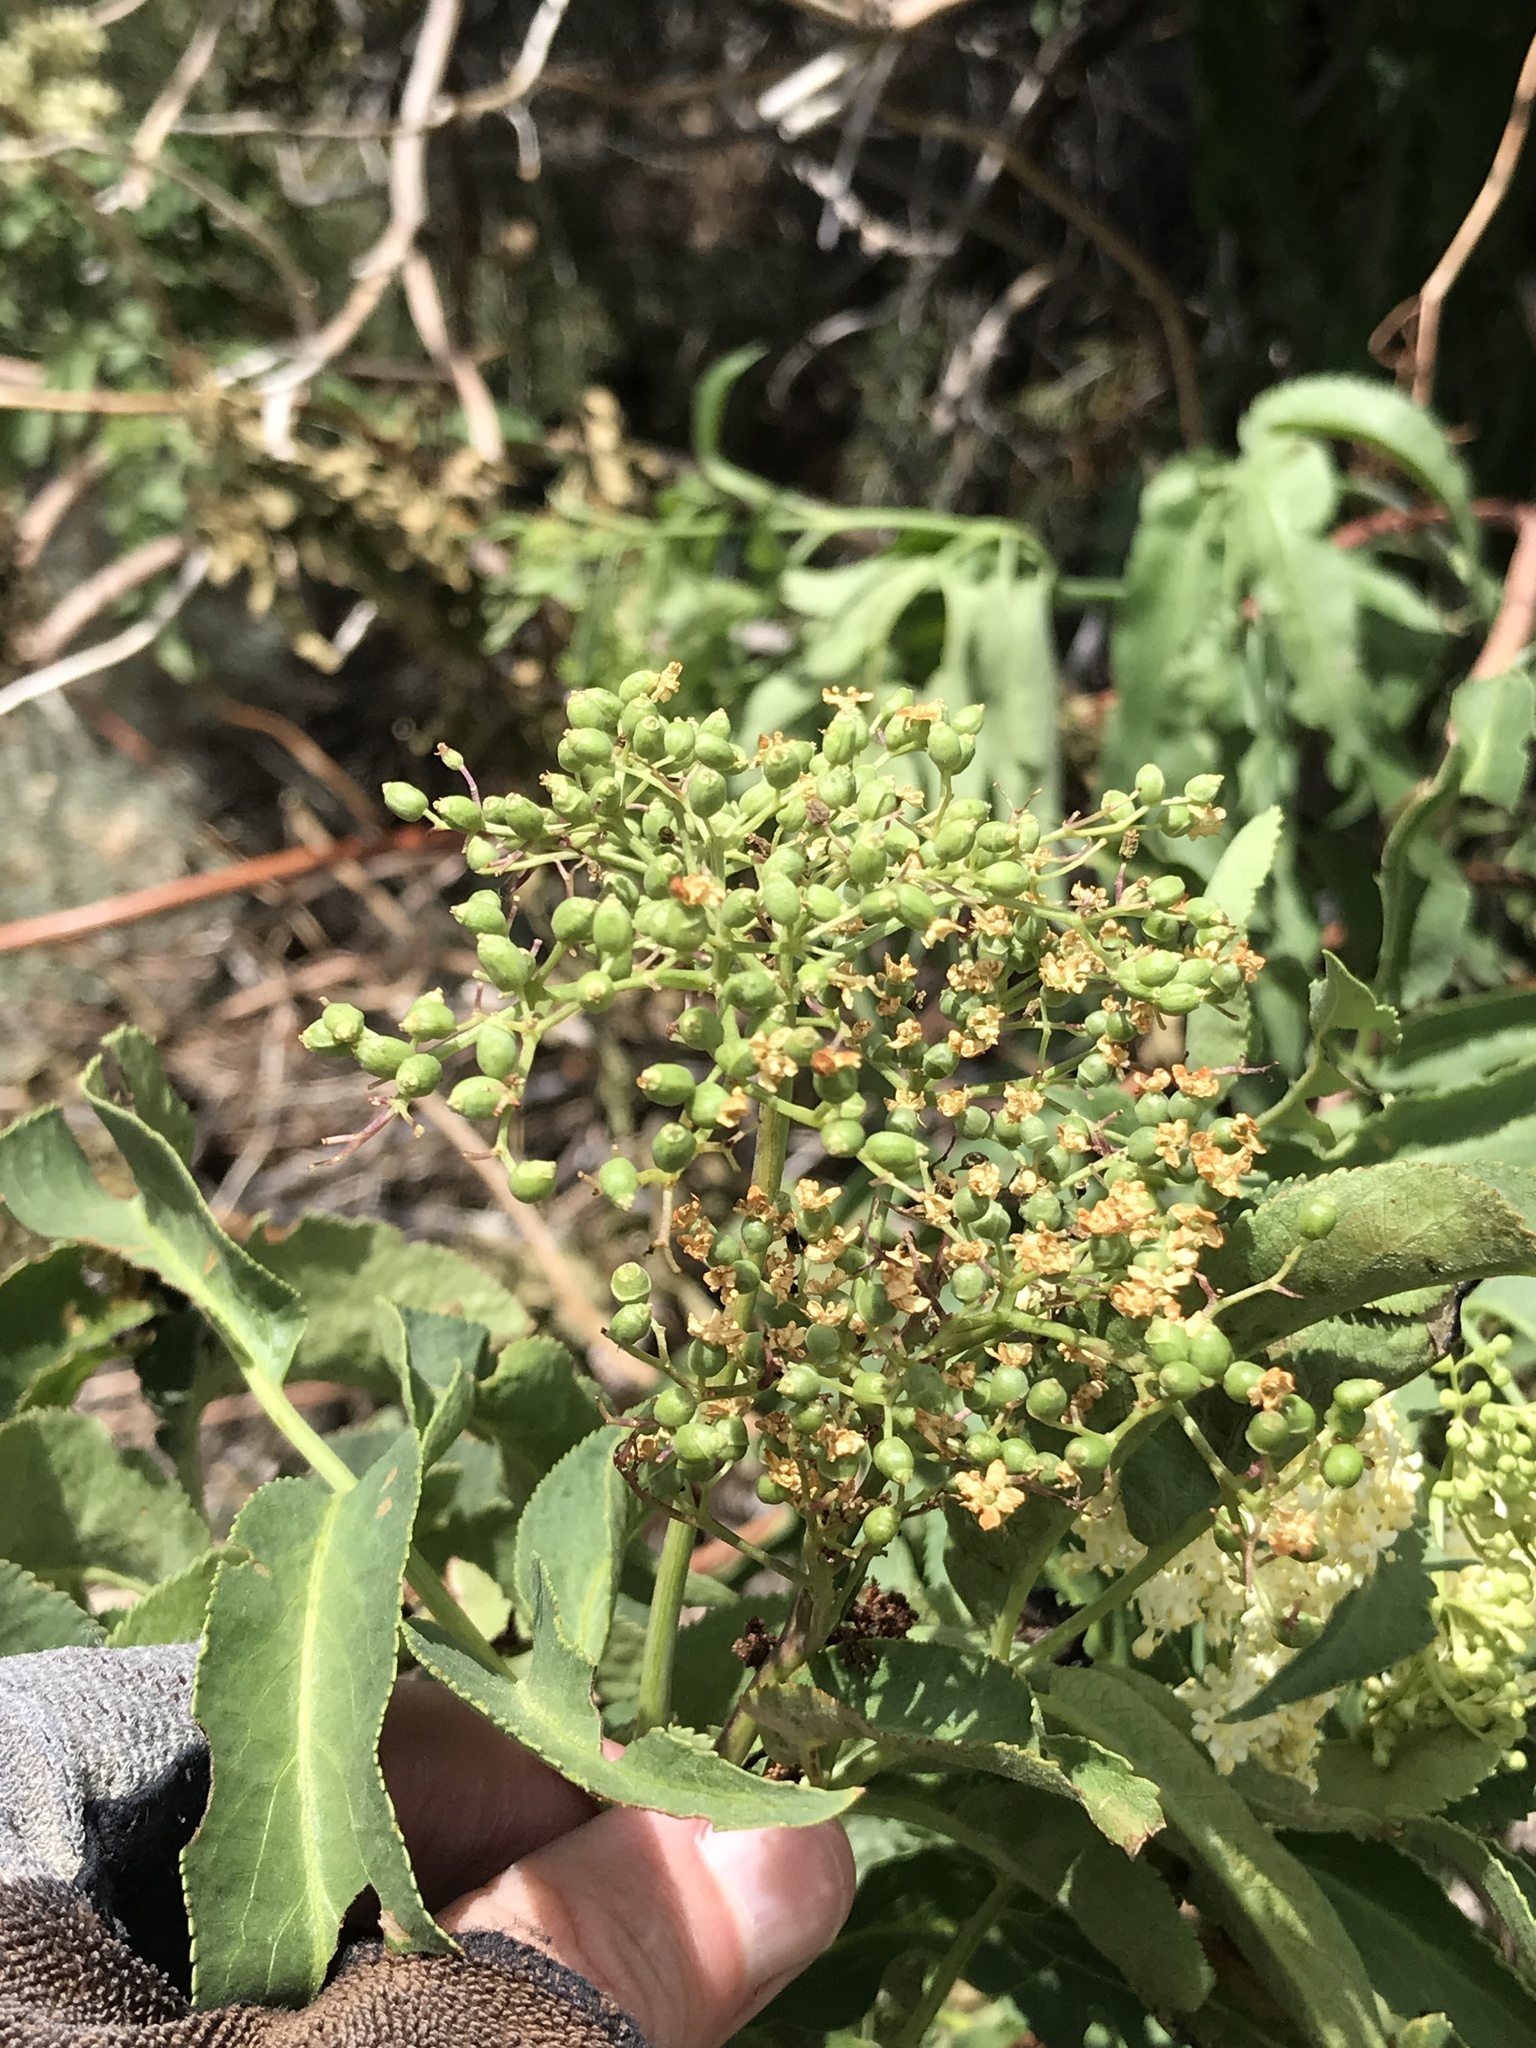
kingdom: Plantae
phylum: Tracheophyta
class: Magnoliopsida
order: Dipsacales
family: Viburnaceae
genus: Sambucus
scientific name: Sambucus cerulea
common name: Blue elder
